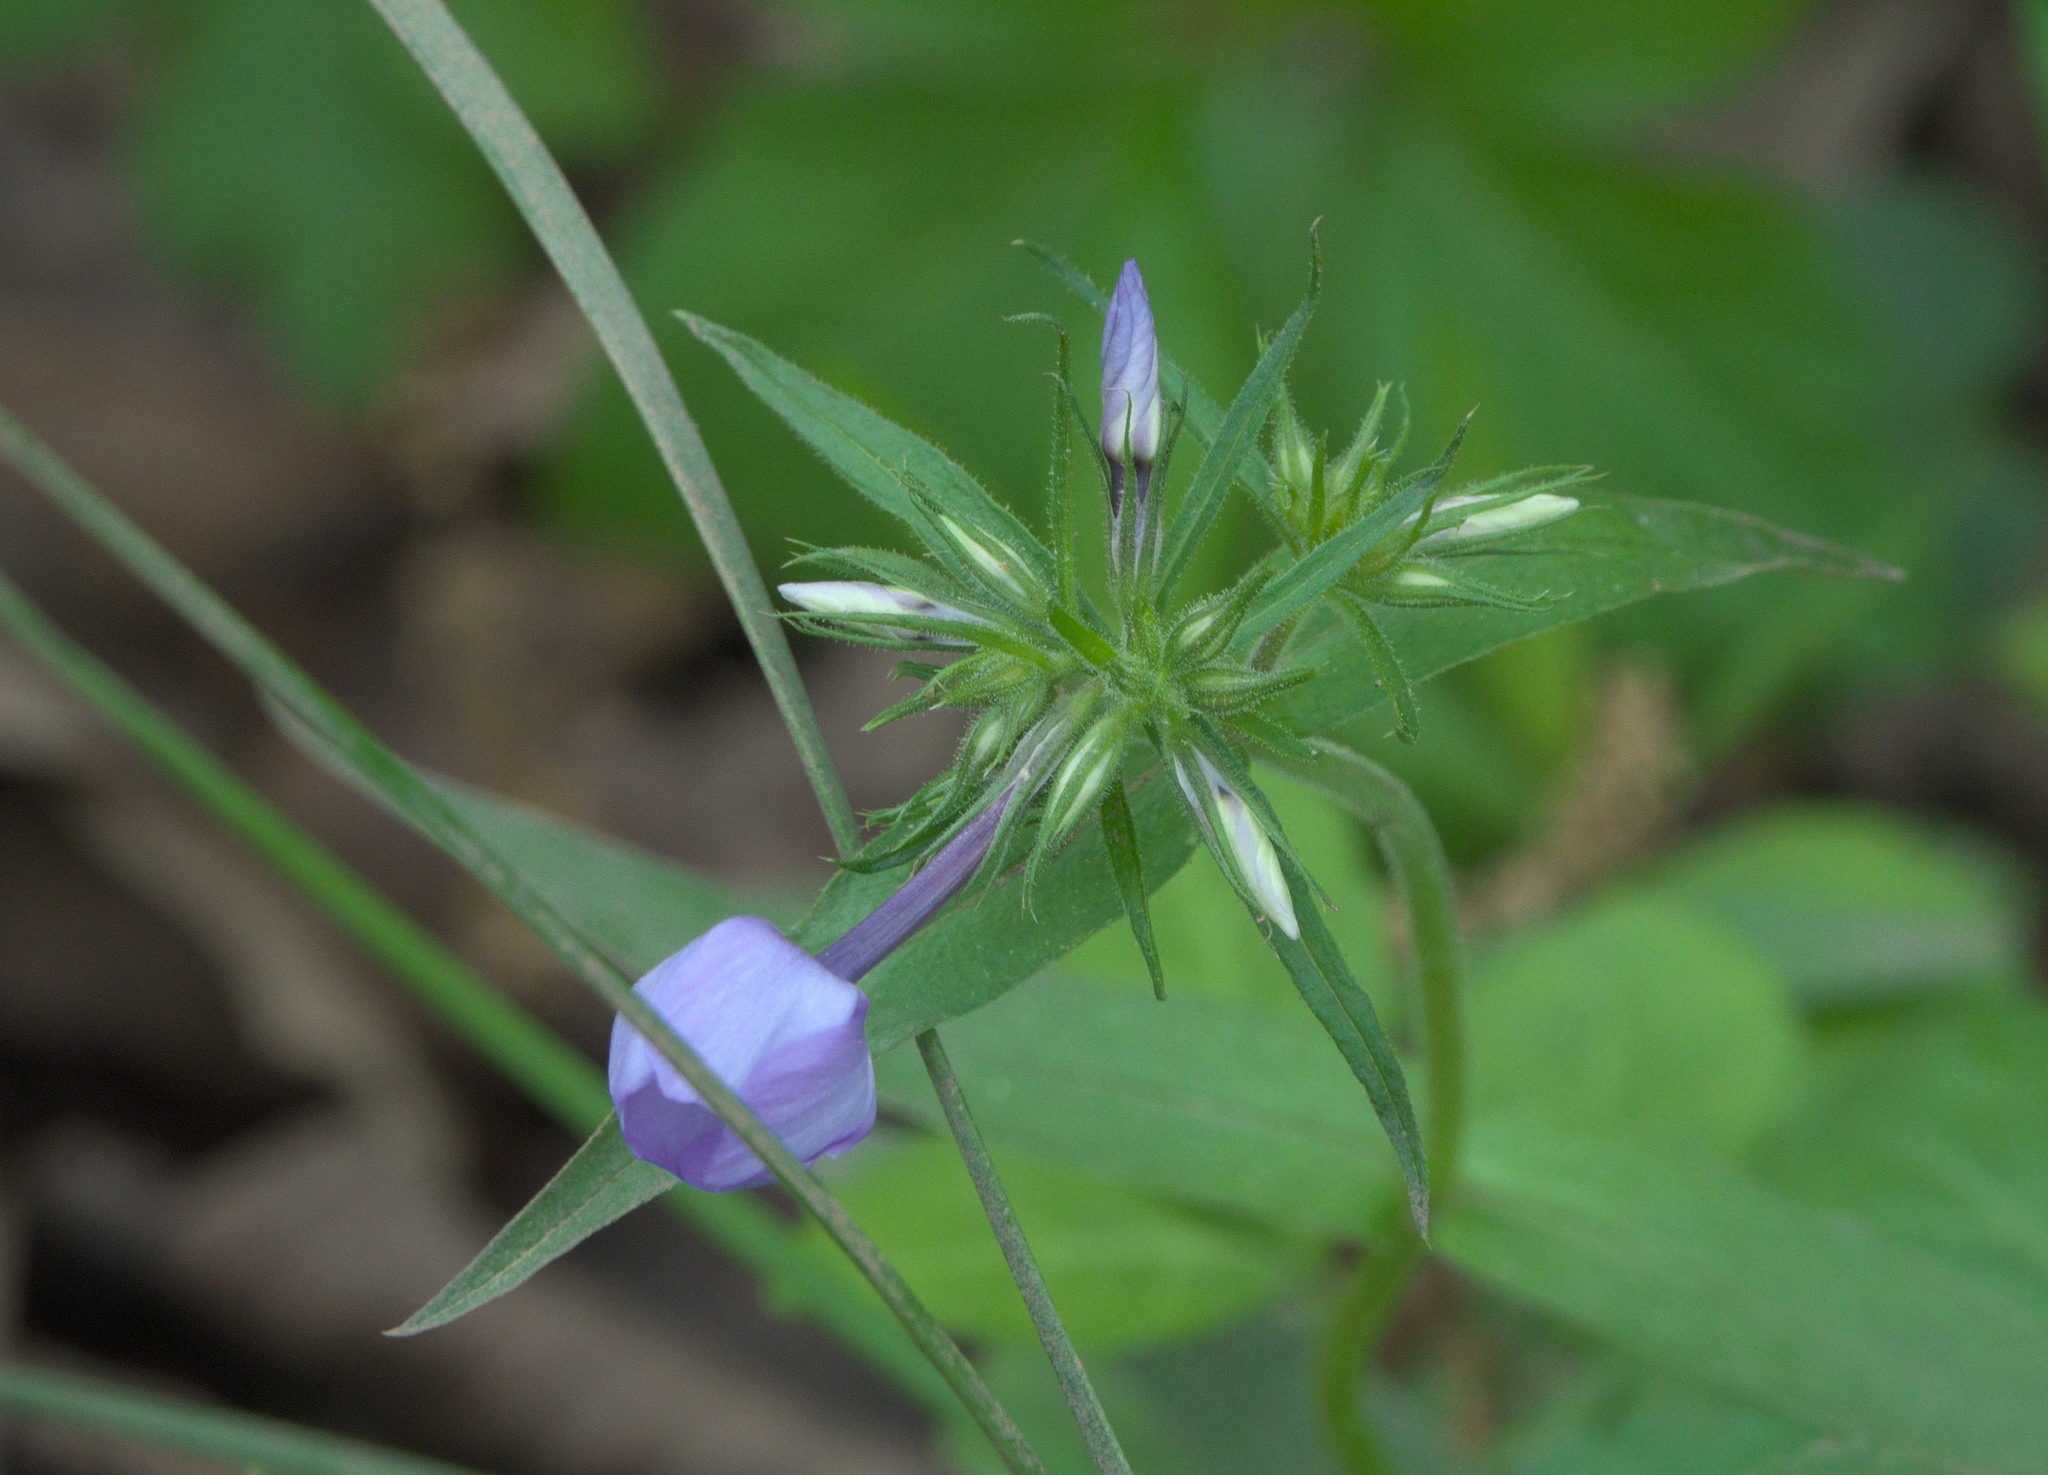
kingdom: Plantae
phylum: Tracheophyta
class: Magnoliopsida
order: Ericales
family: Polemoniaceae
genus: Phlox
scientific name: Phlox divaricata
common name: Blue phlox
